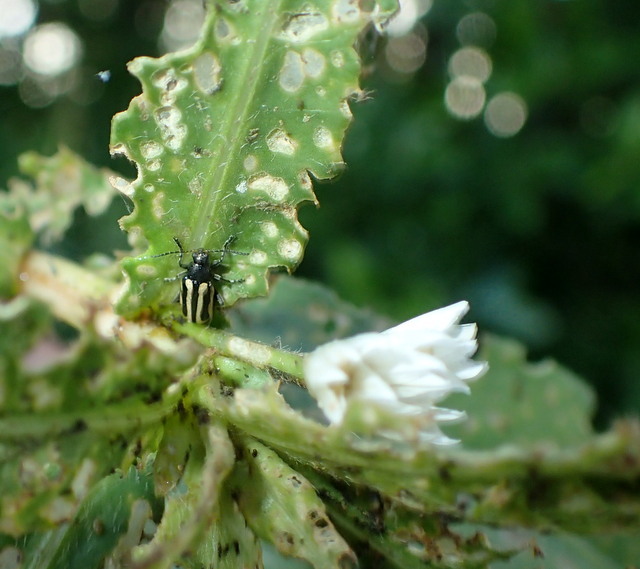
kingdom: Animalia
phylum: Arthropoda
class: Insecta
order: Coleoptera
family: Chrysomelidae
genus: Agasicles
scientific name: Agasicles hygrophila
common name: Alligatorweed flea beetle
